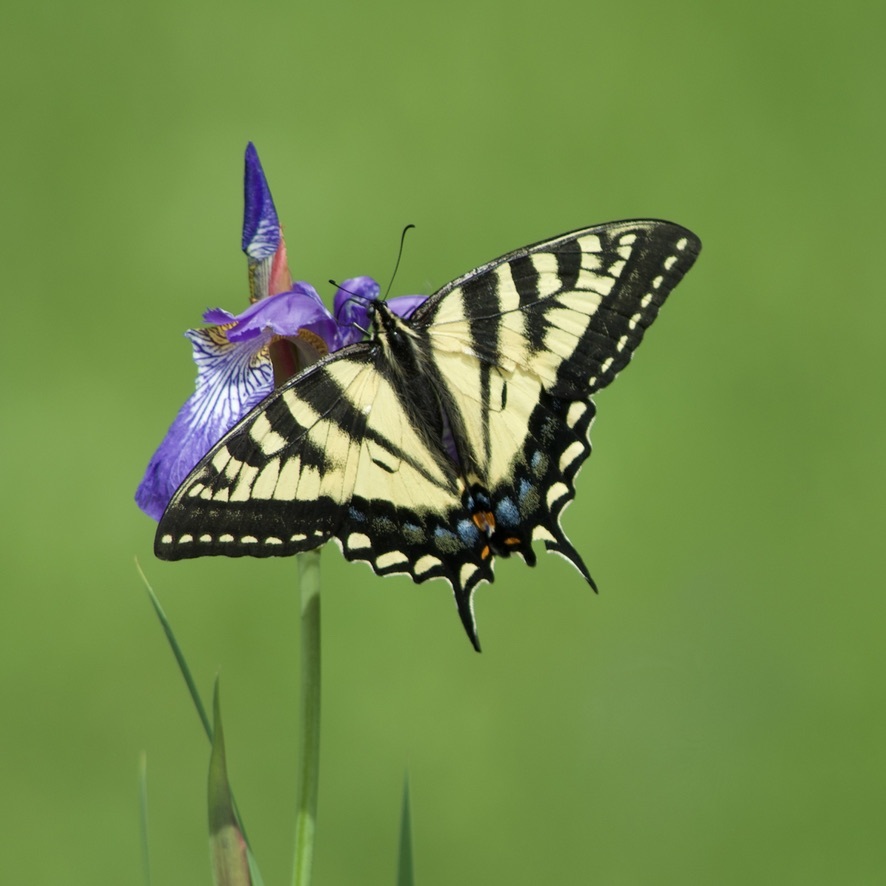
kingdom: Animalia
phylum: Arthropoda
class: Insecta
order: Lepidoptera
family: Papilionidae
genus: Papilio
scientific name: Papilio canadensis
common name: Canadian tiger swallowtail
